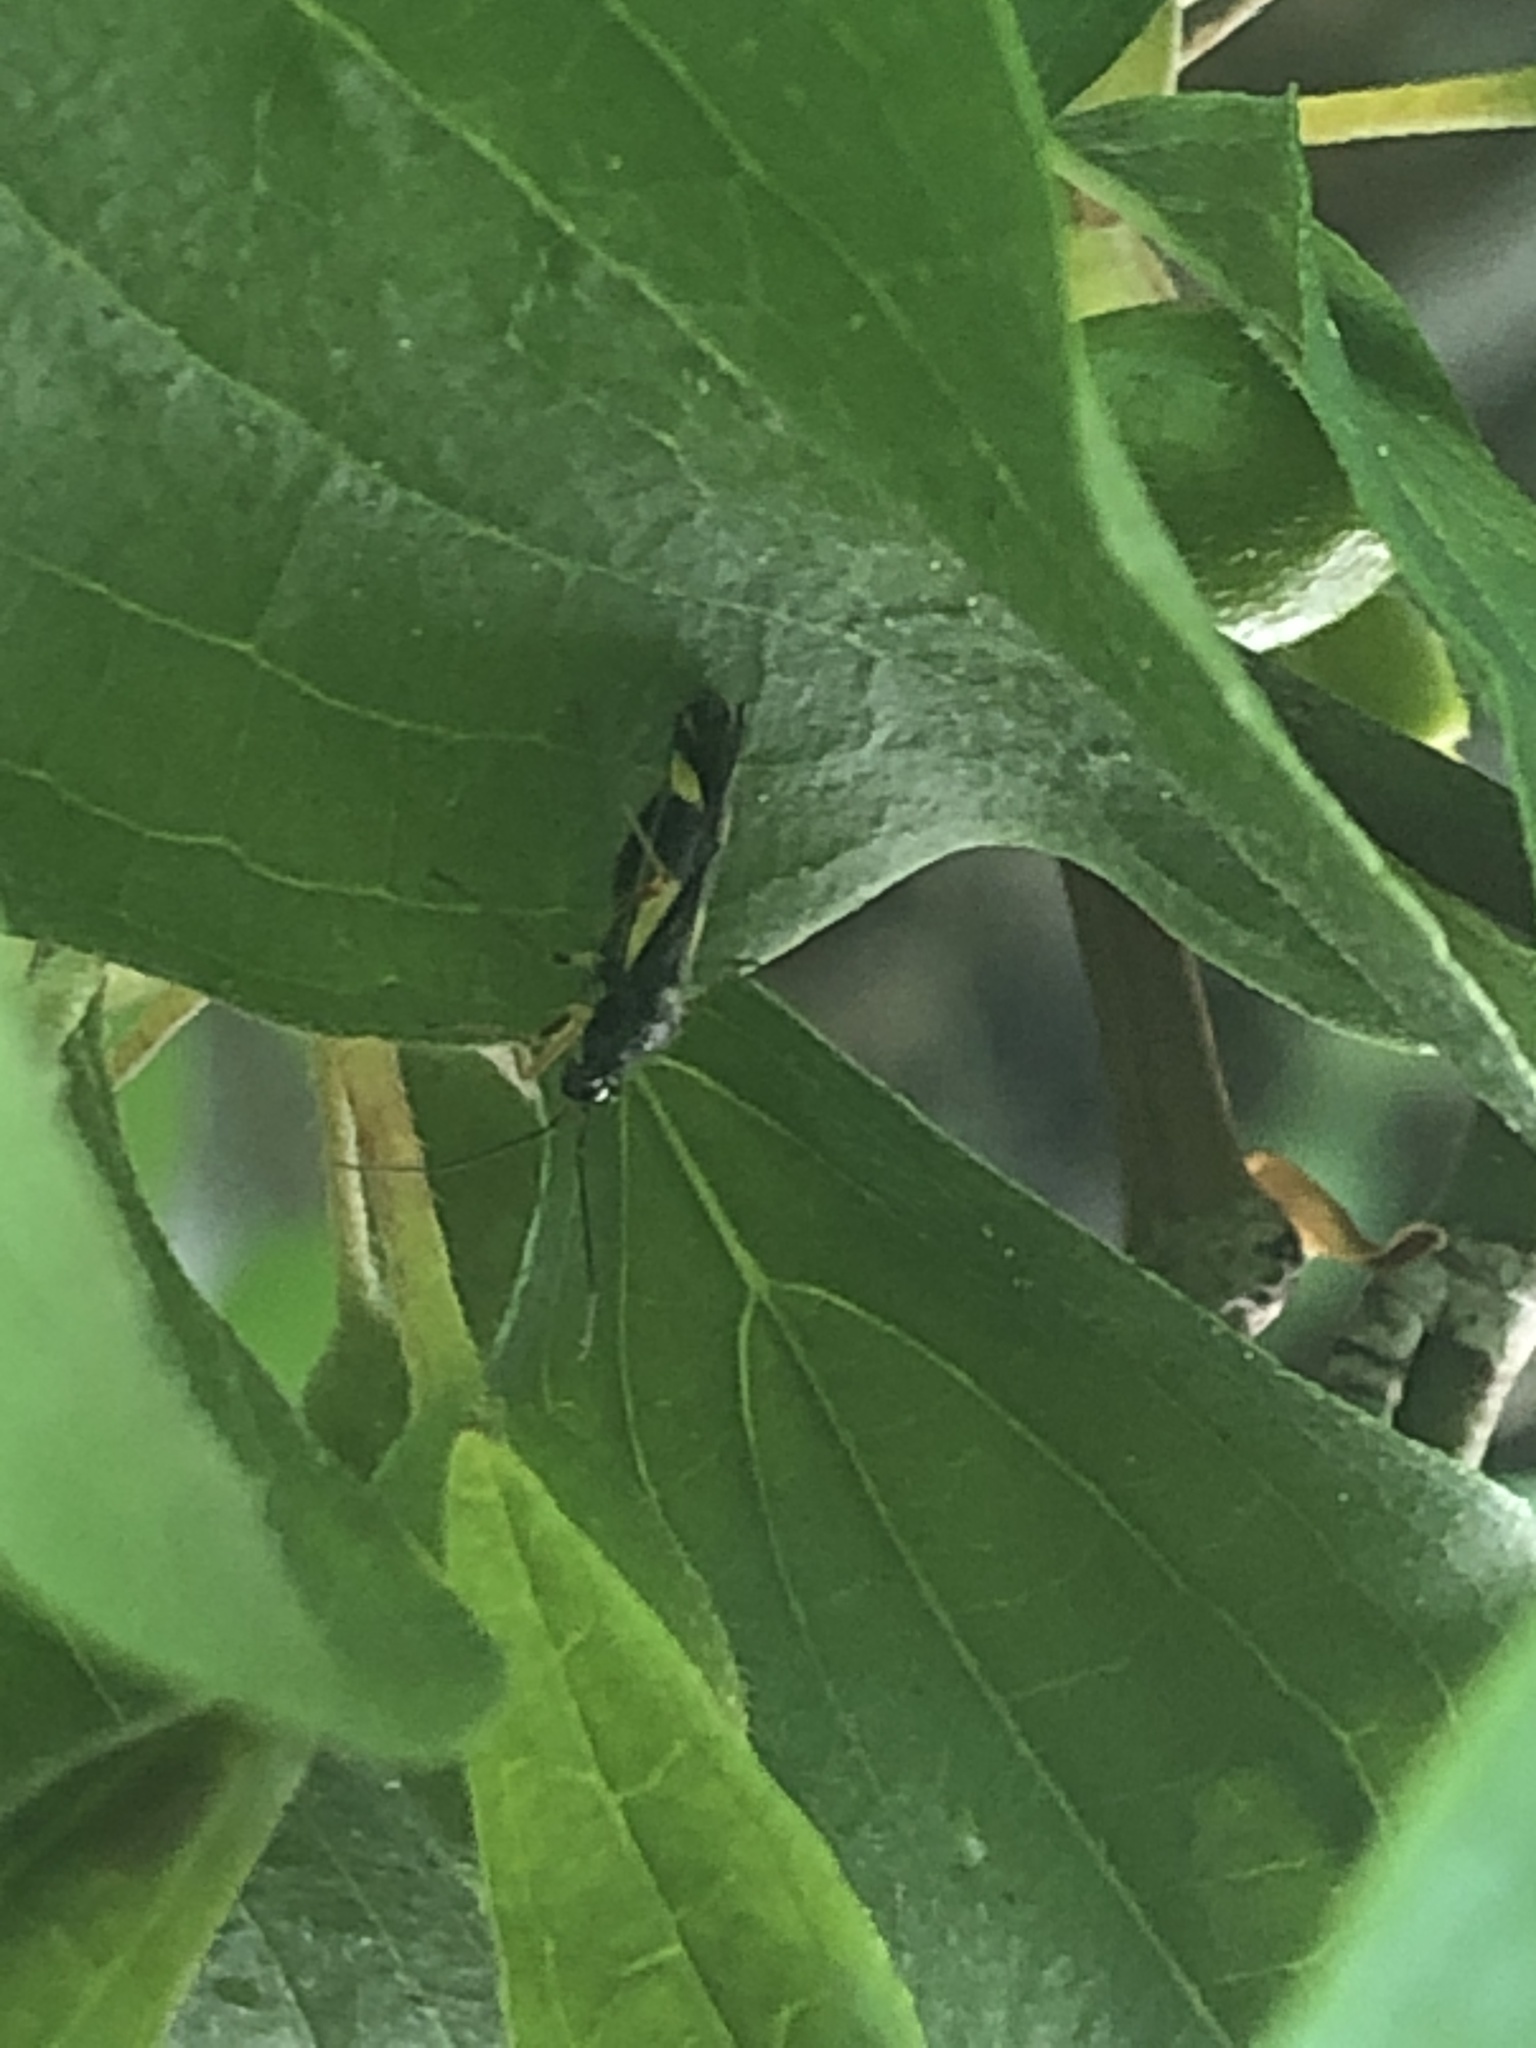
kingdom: Animalia
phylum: Arthropoda
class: Insecta
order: Hemiptera
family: Miridae
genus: Dryophilocoris
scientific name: Dryophilocoris flavoquadrimaculatus
